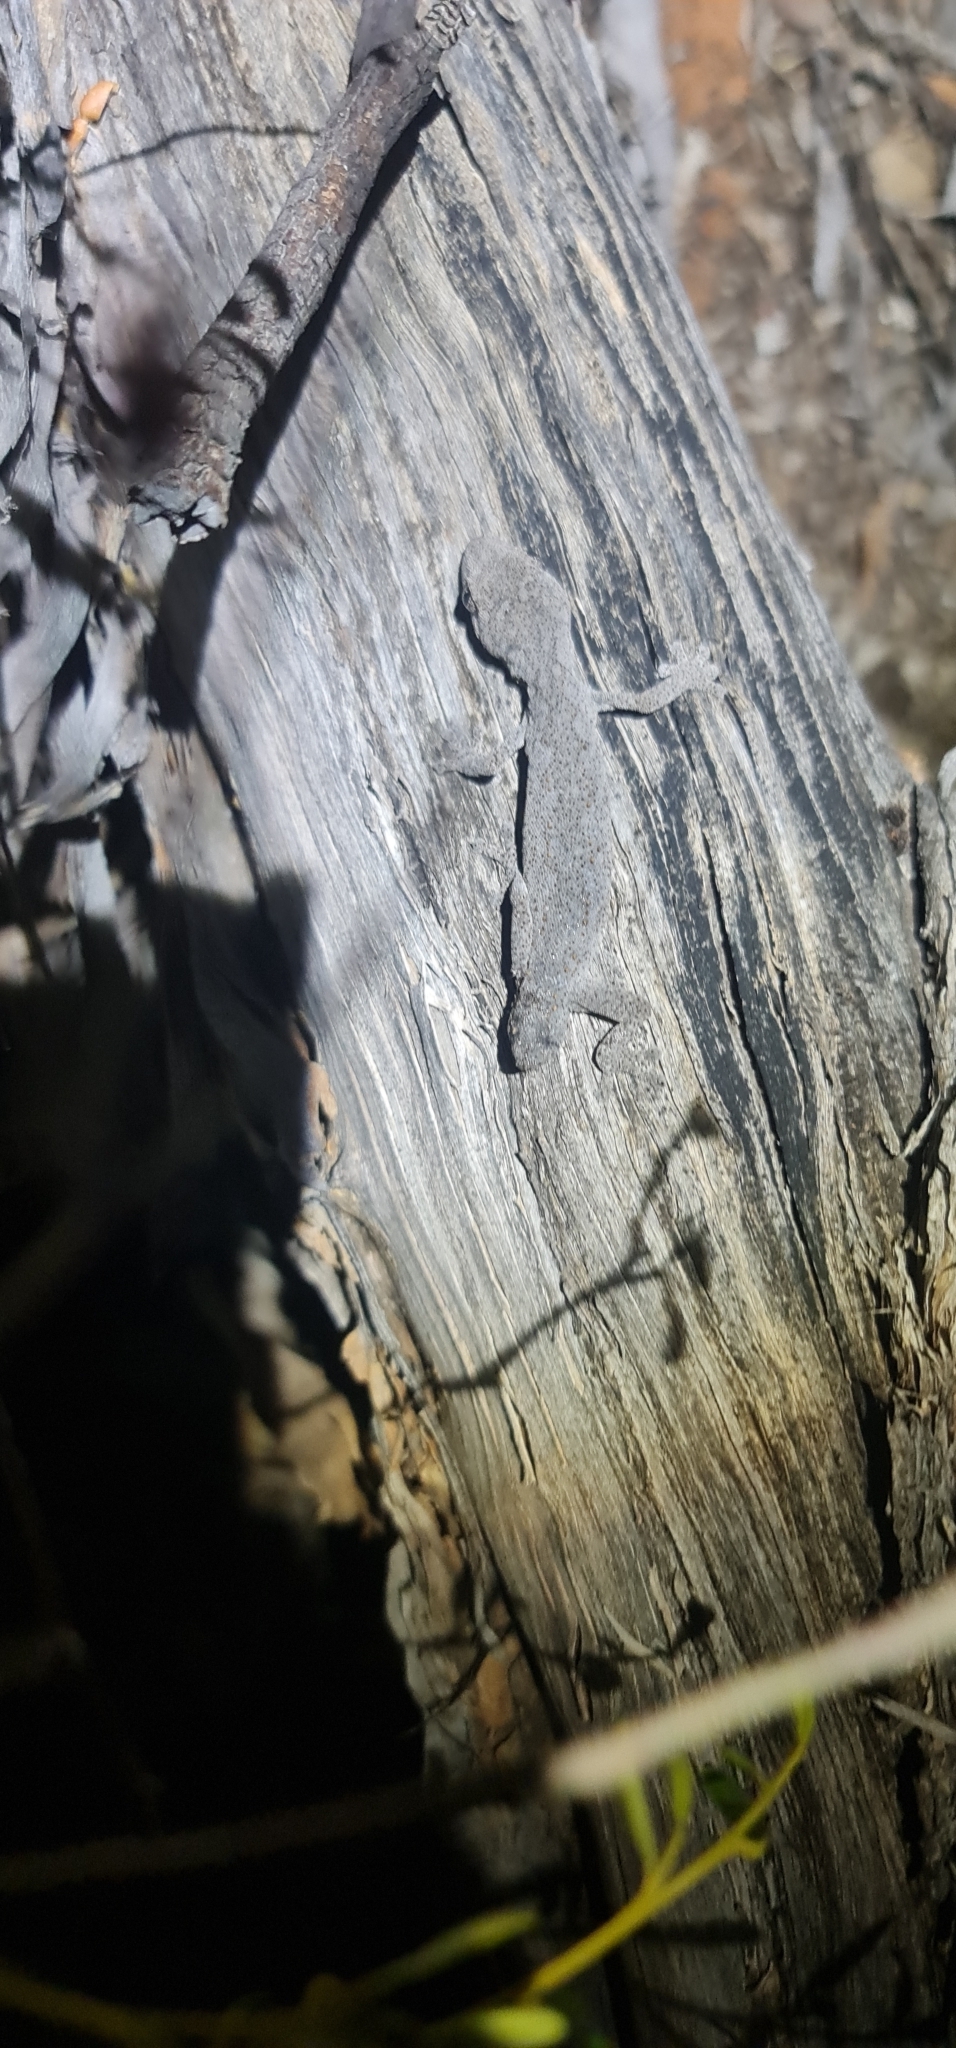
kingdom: Animalia
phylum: Chordata
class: Squamata
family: Diplodactylidae
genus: Strophurus
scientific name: Strophurus williamsi
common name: Eastern spiny-tailed gecko
